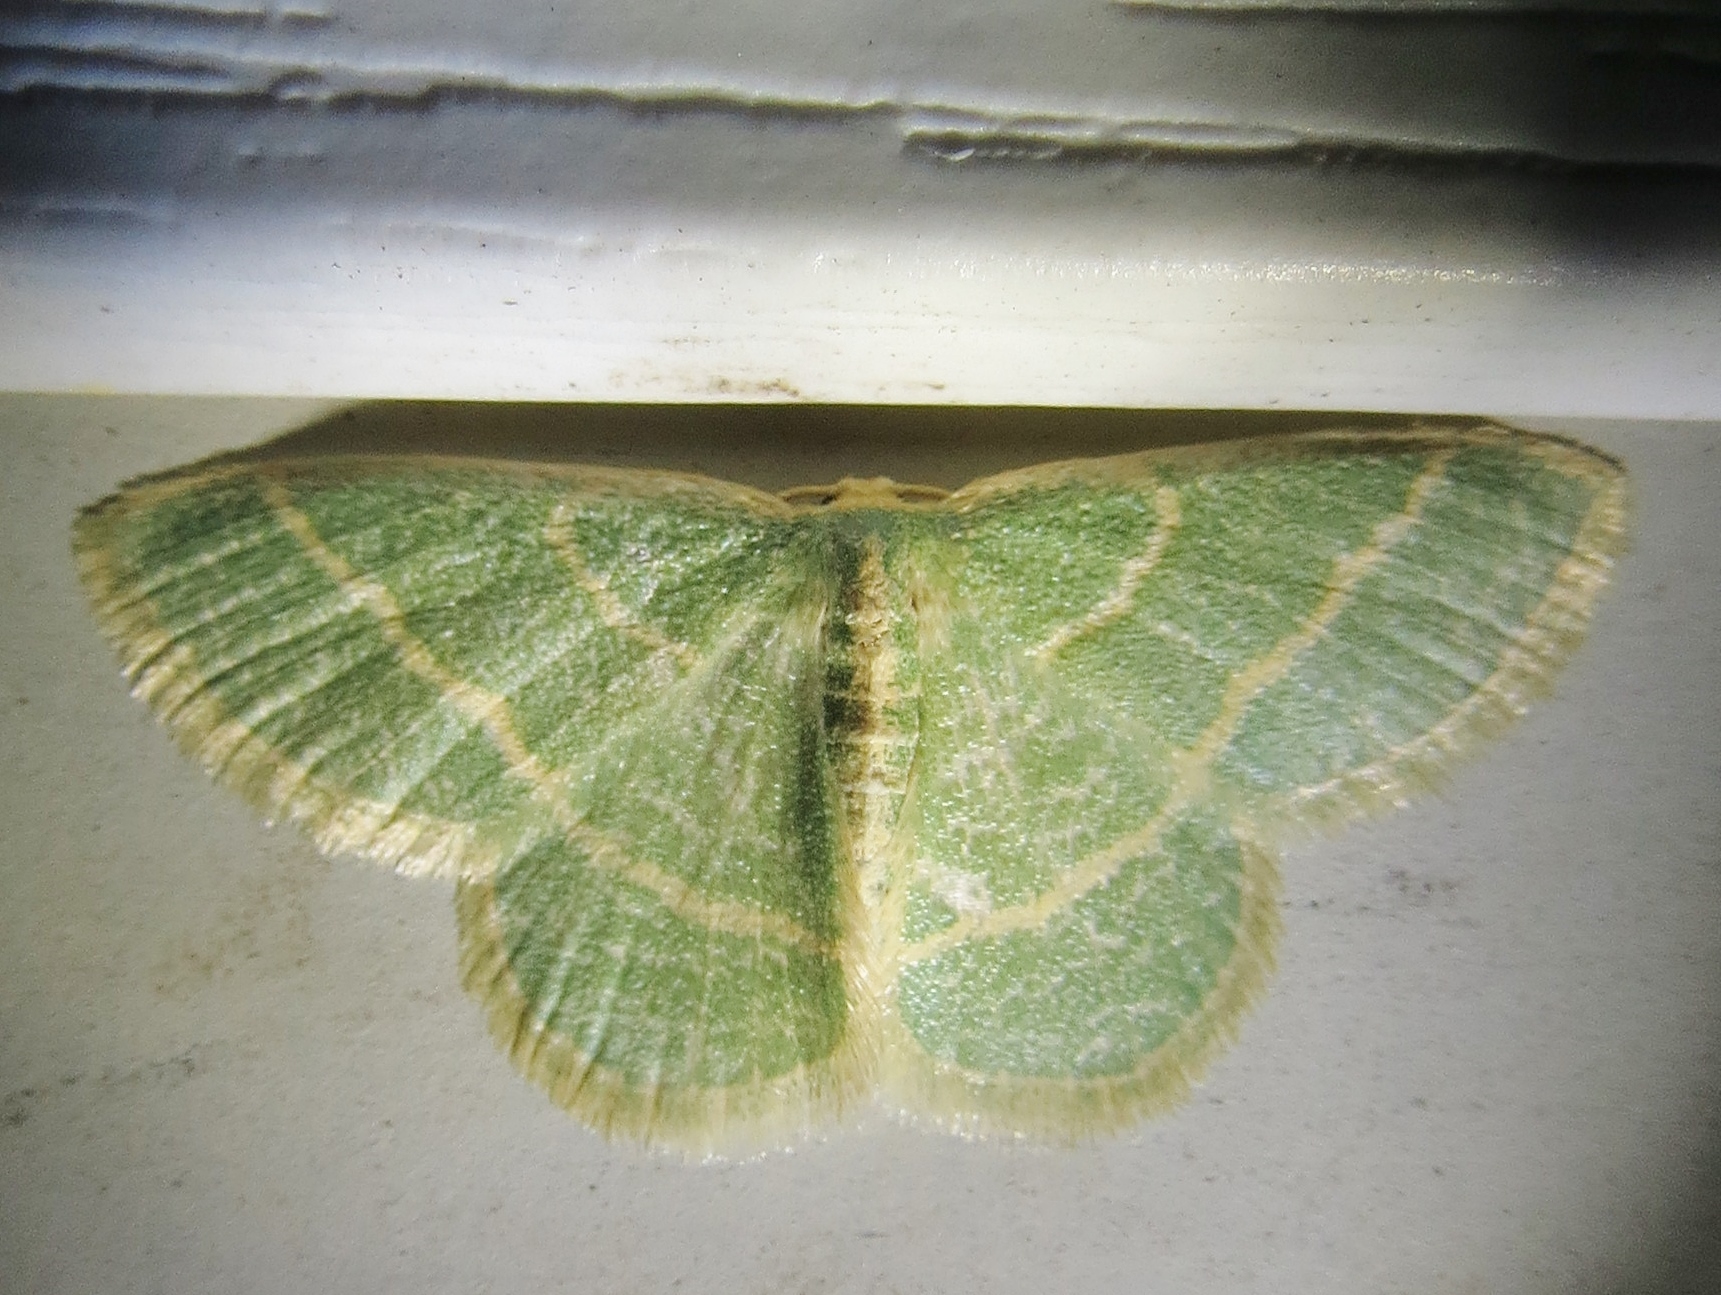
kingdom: Animalia
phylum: Arthropoda
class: Insecta
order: Lepidoptera
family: Geometridae
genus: Chlorochlamys
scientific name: Chlorochlamys chloroleucaria
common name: Blackberry looper
